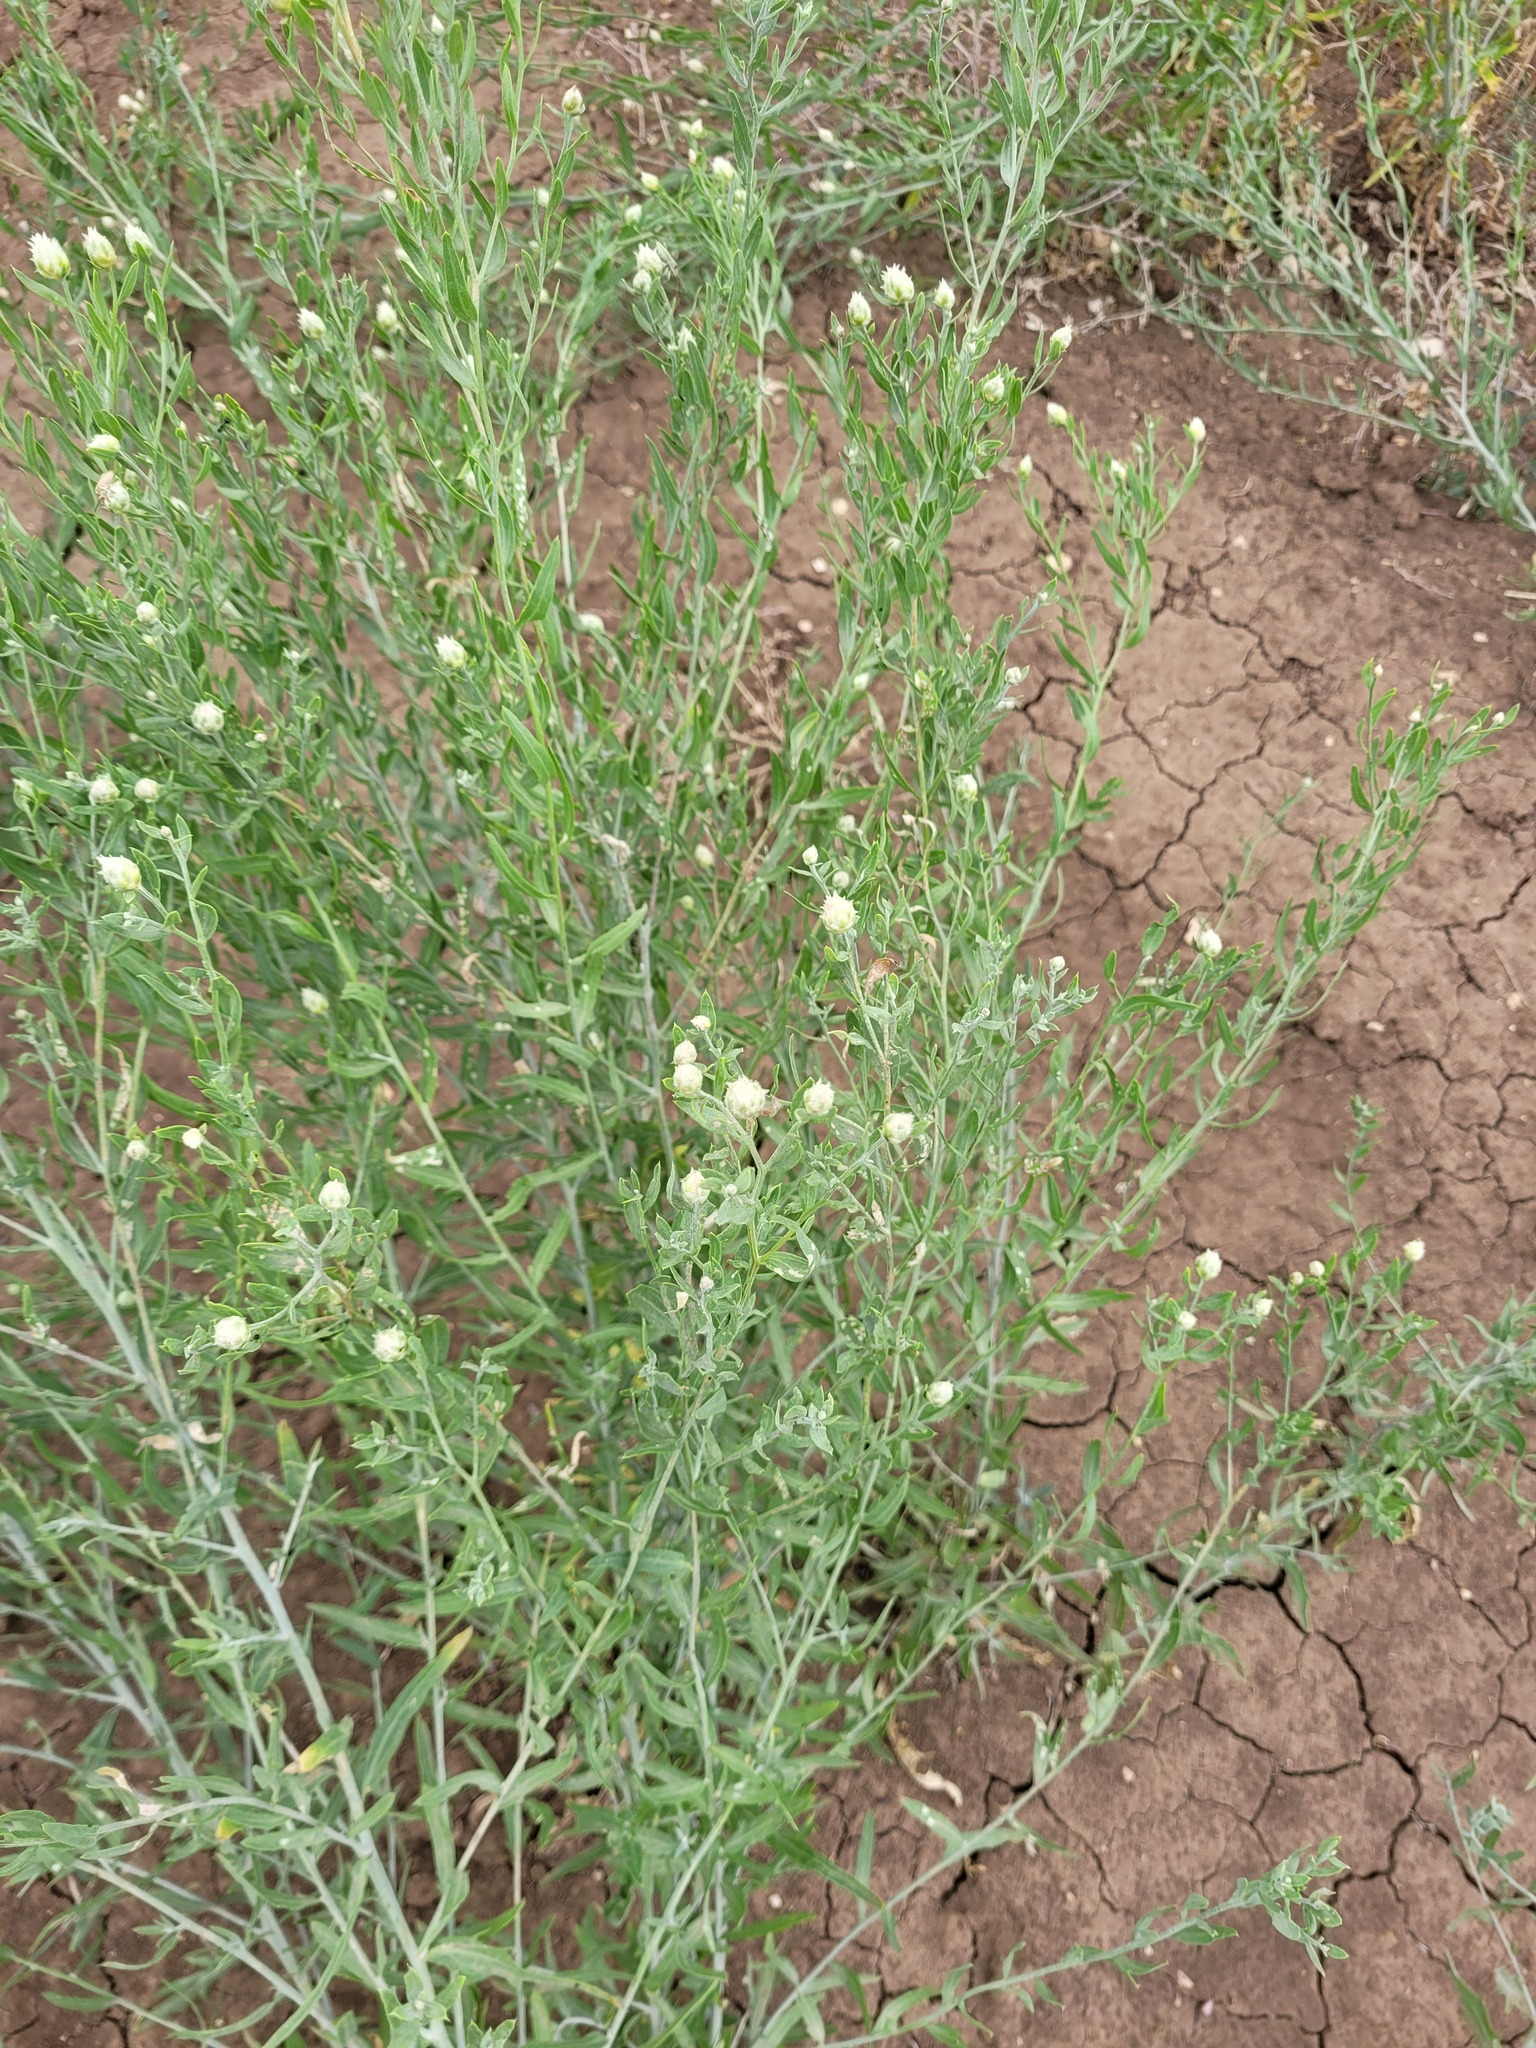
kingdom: Plantae
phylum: Tracheophyta
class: Magnoliopsida
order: Asterales
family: Asteraceae
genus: Leuzea
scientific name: Leuzea repens
